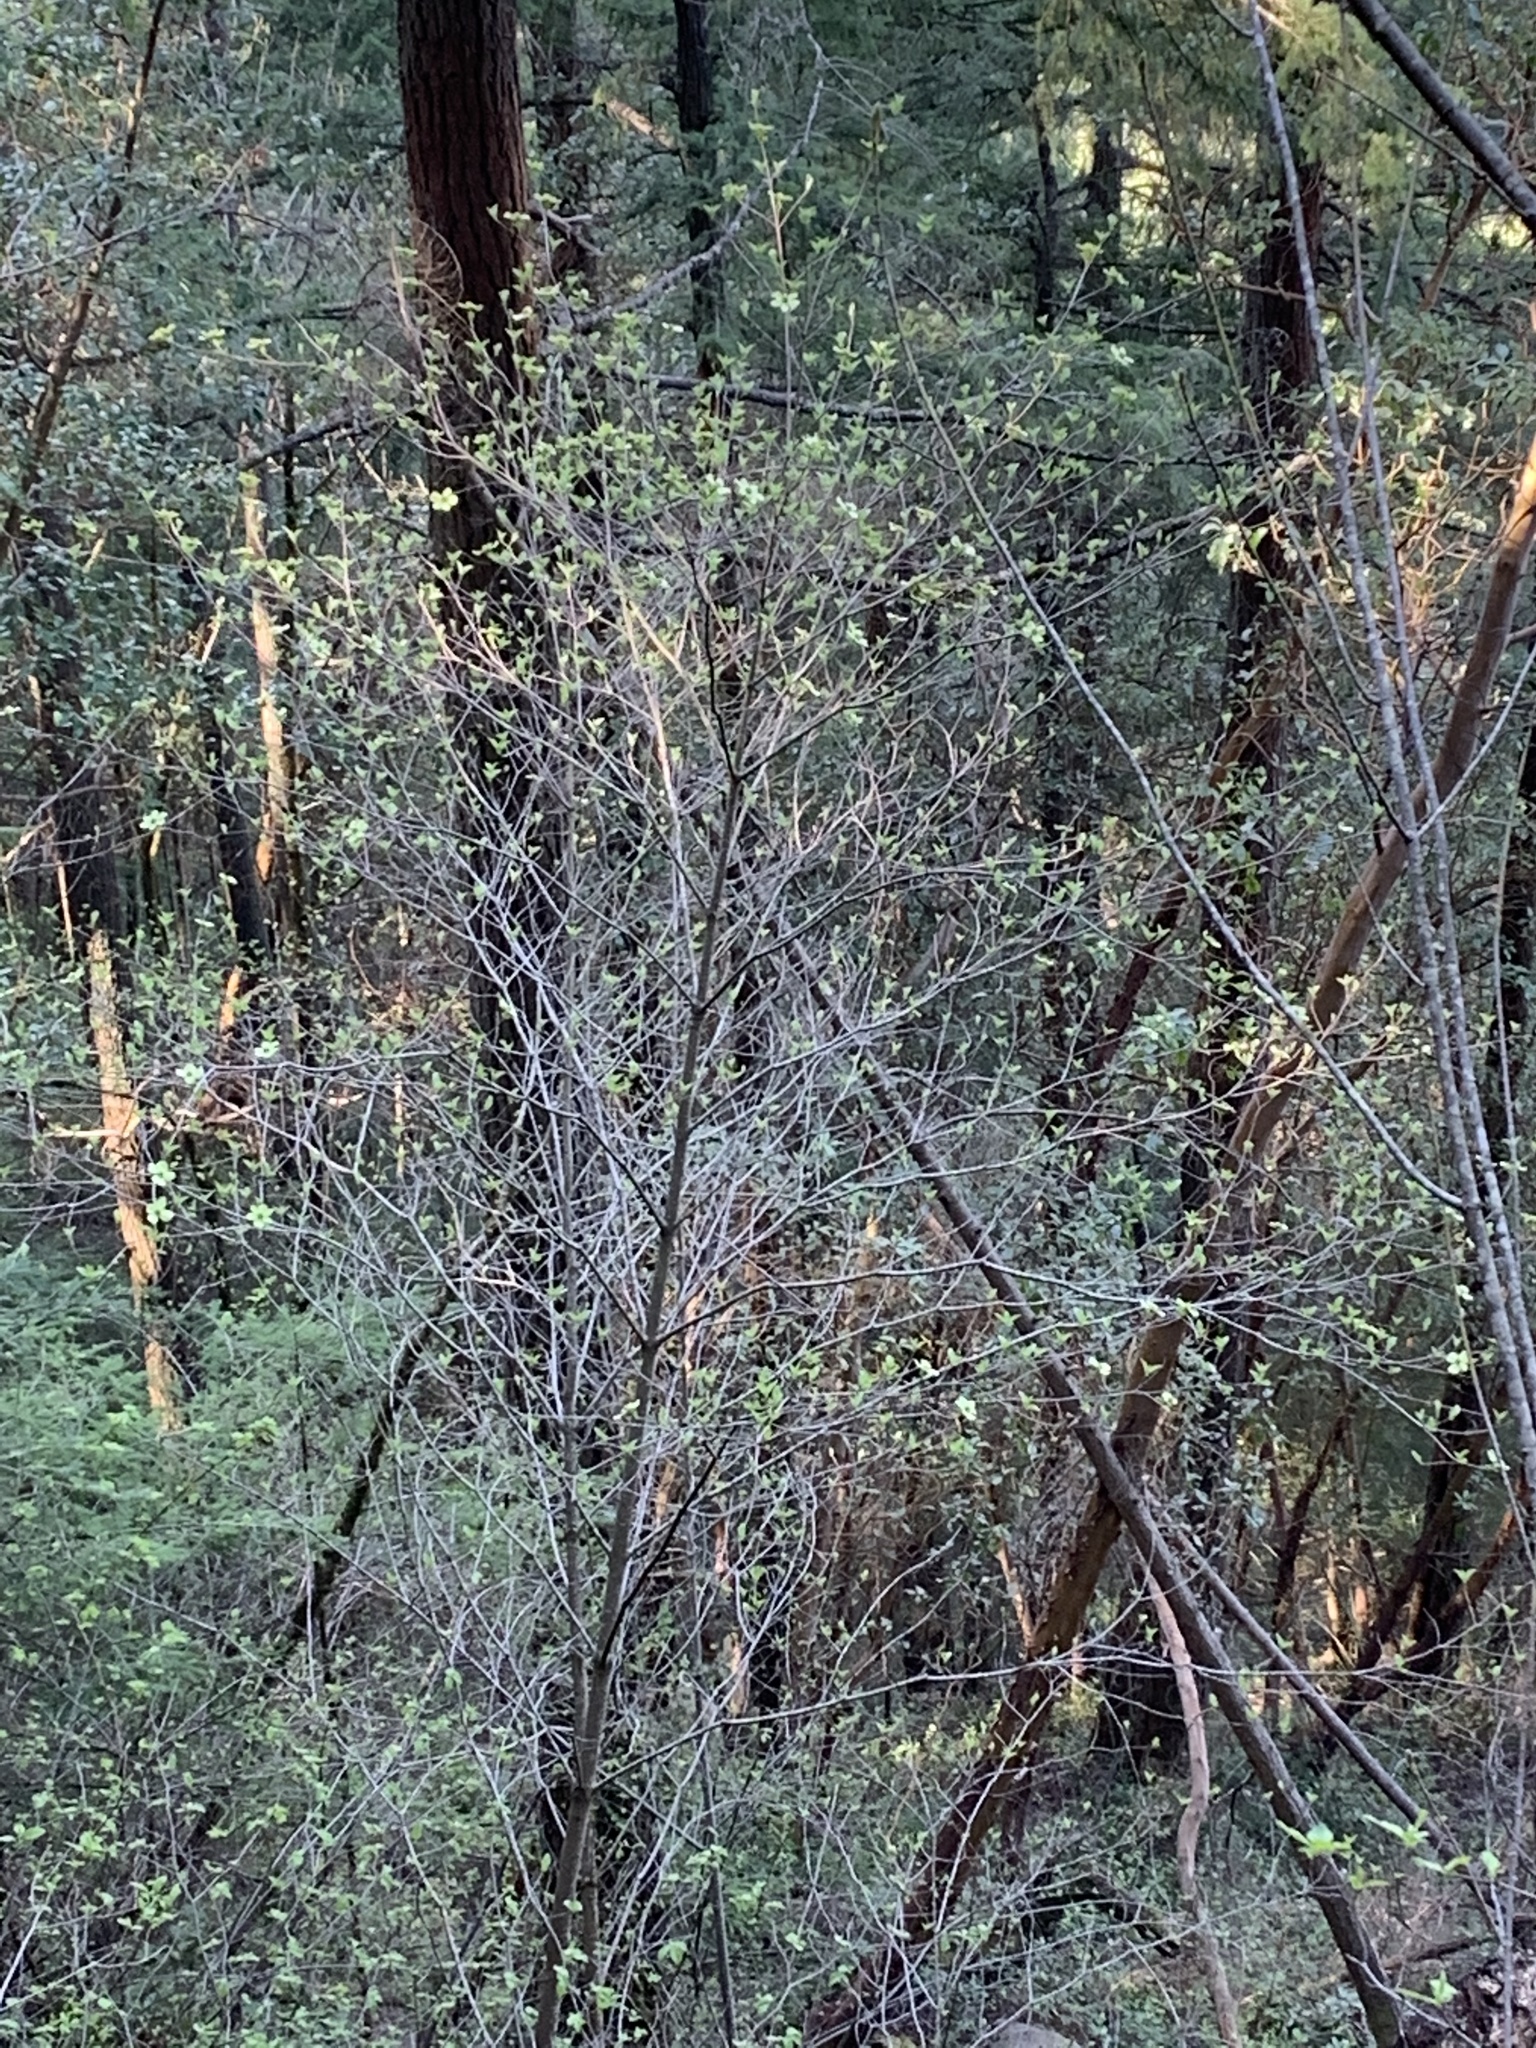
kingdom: Plantae
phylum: Tracheophyta
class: Magnoliopsida
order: Cornales
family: Cornaceae
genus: Cornus
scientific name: Cornus nuttallii
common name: Pacific dogwood
